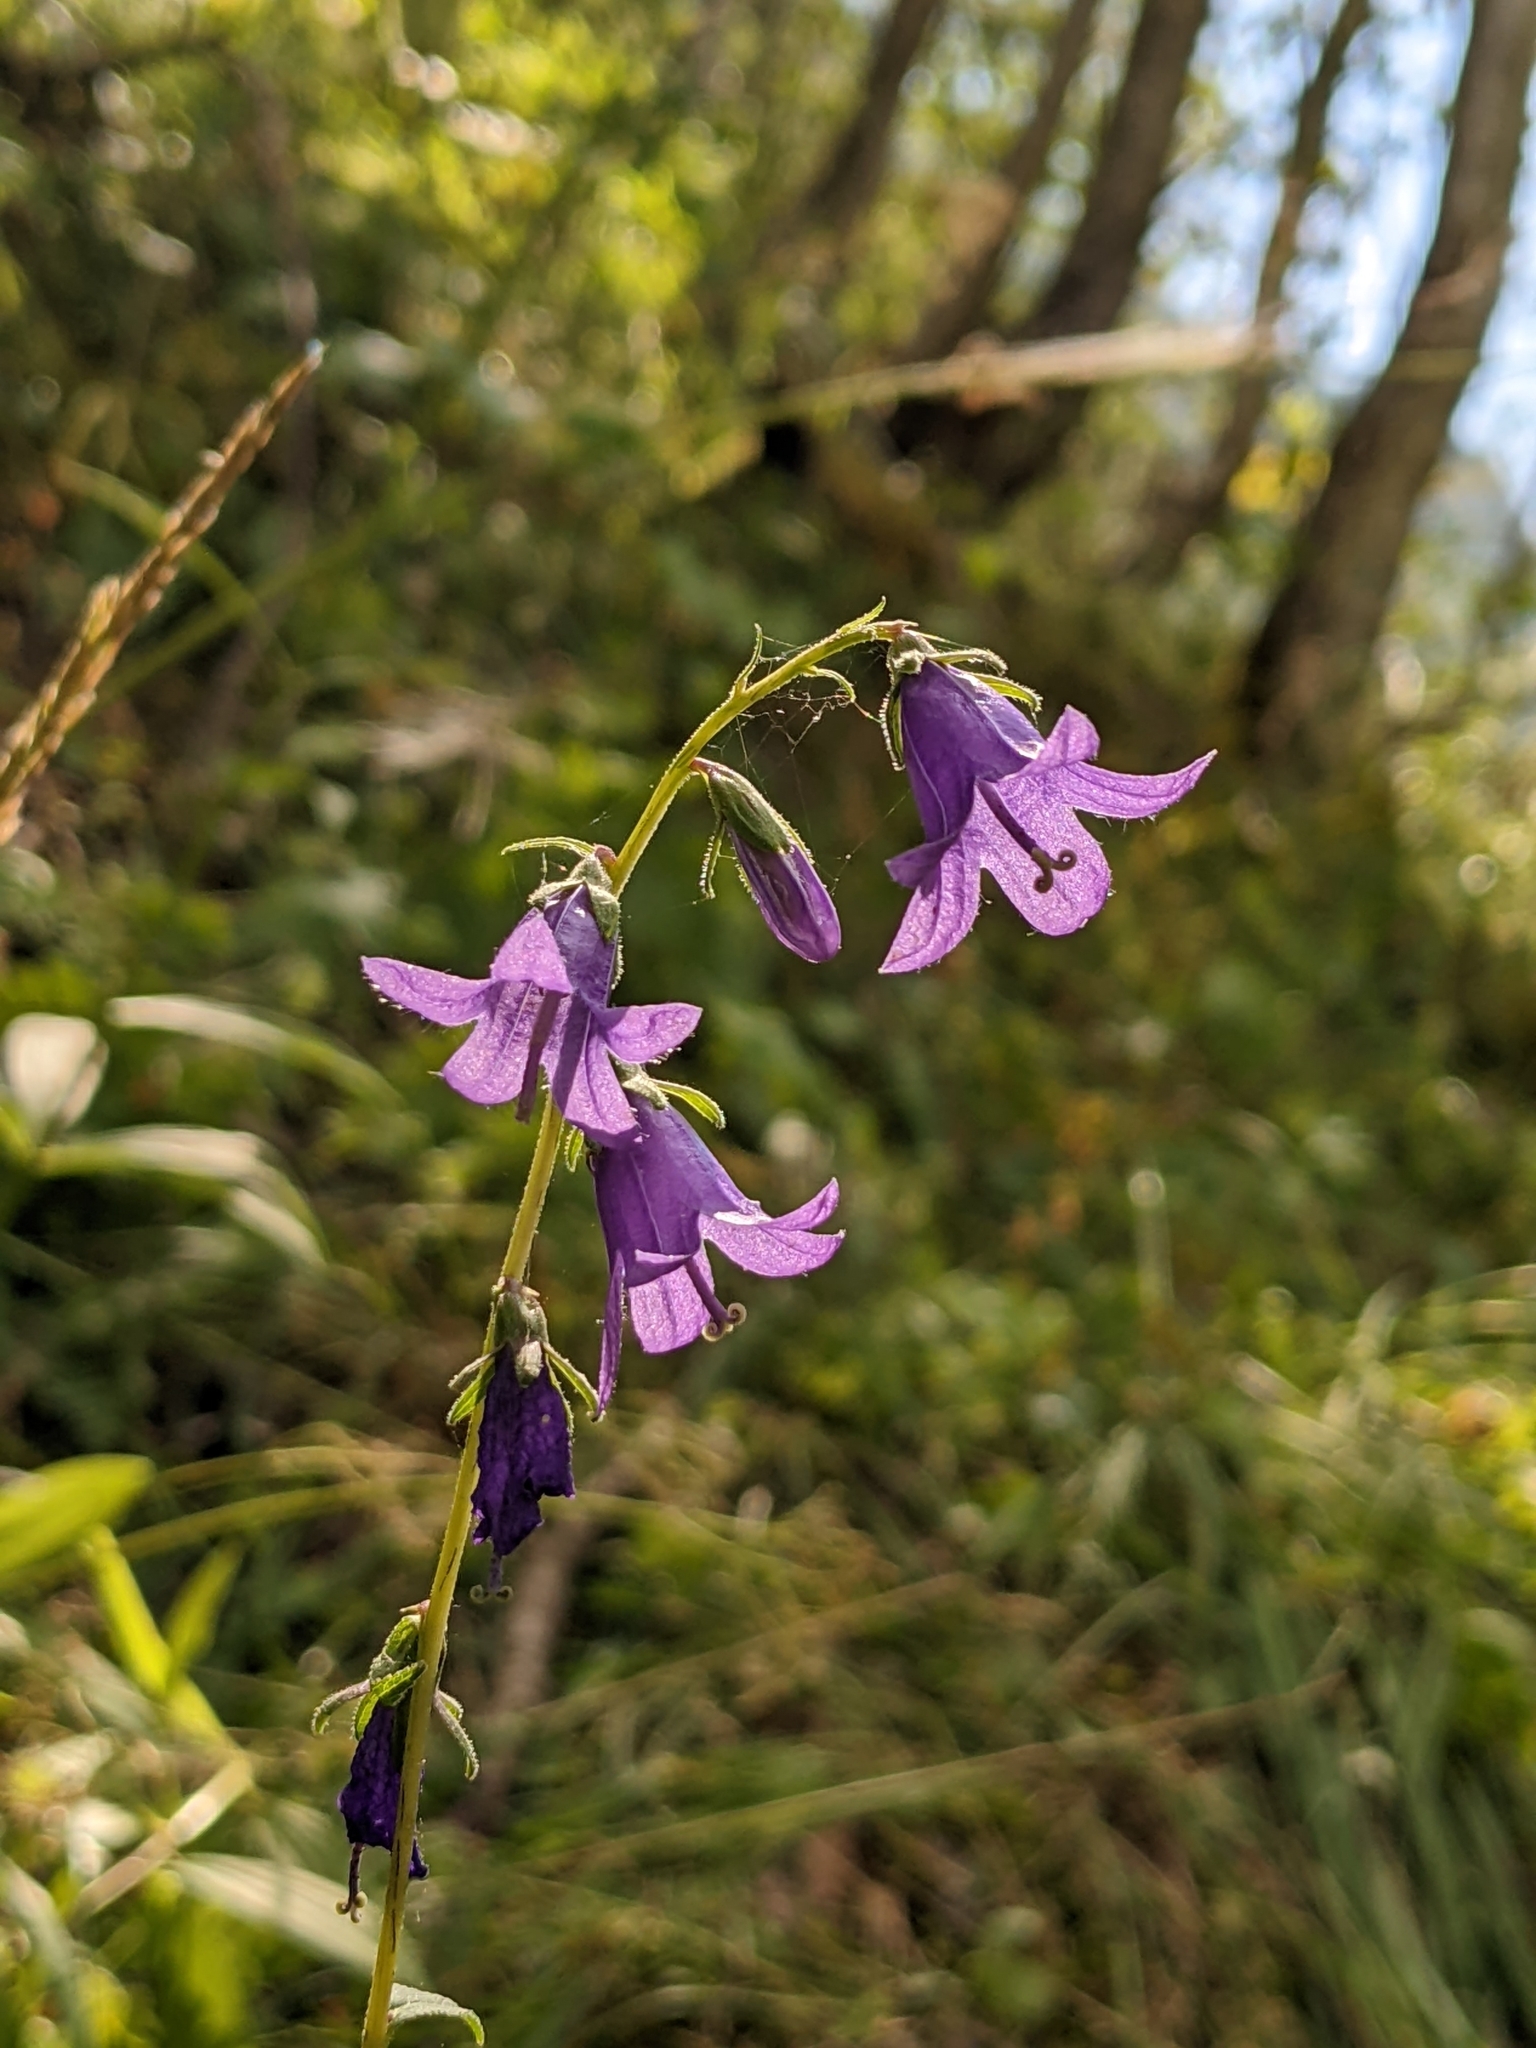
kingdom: Plantae
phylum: Tracheophyta
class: Magnoliopsida
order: Asterales
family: Campanulaceae
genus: Campanula
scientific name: Campanula rapunculoides
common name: Creeping bellflower
